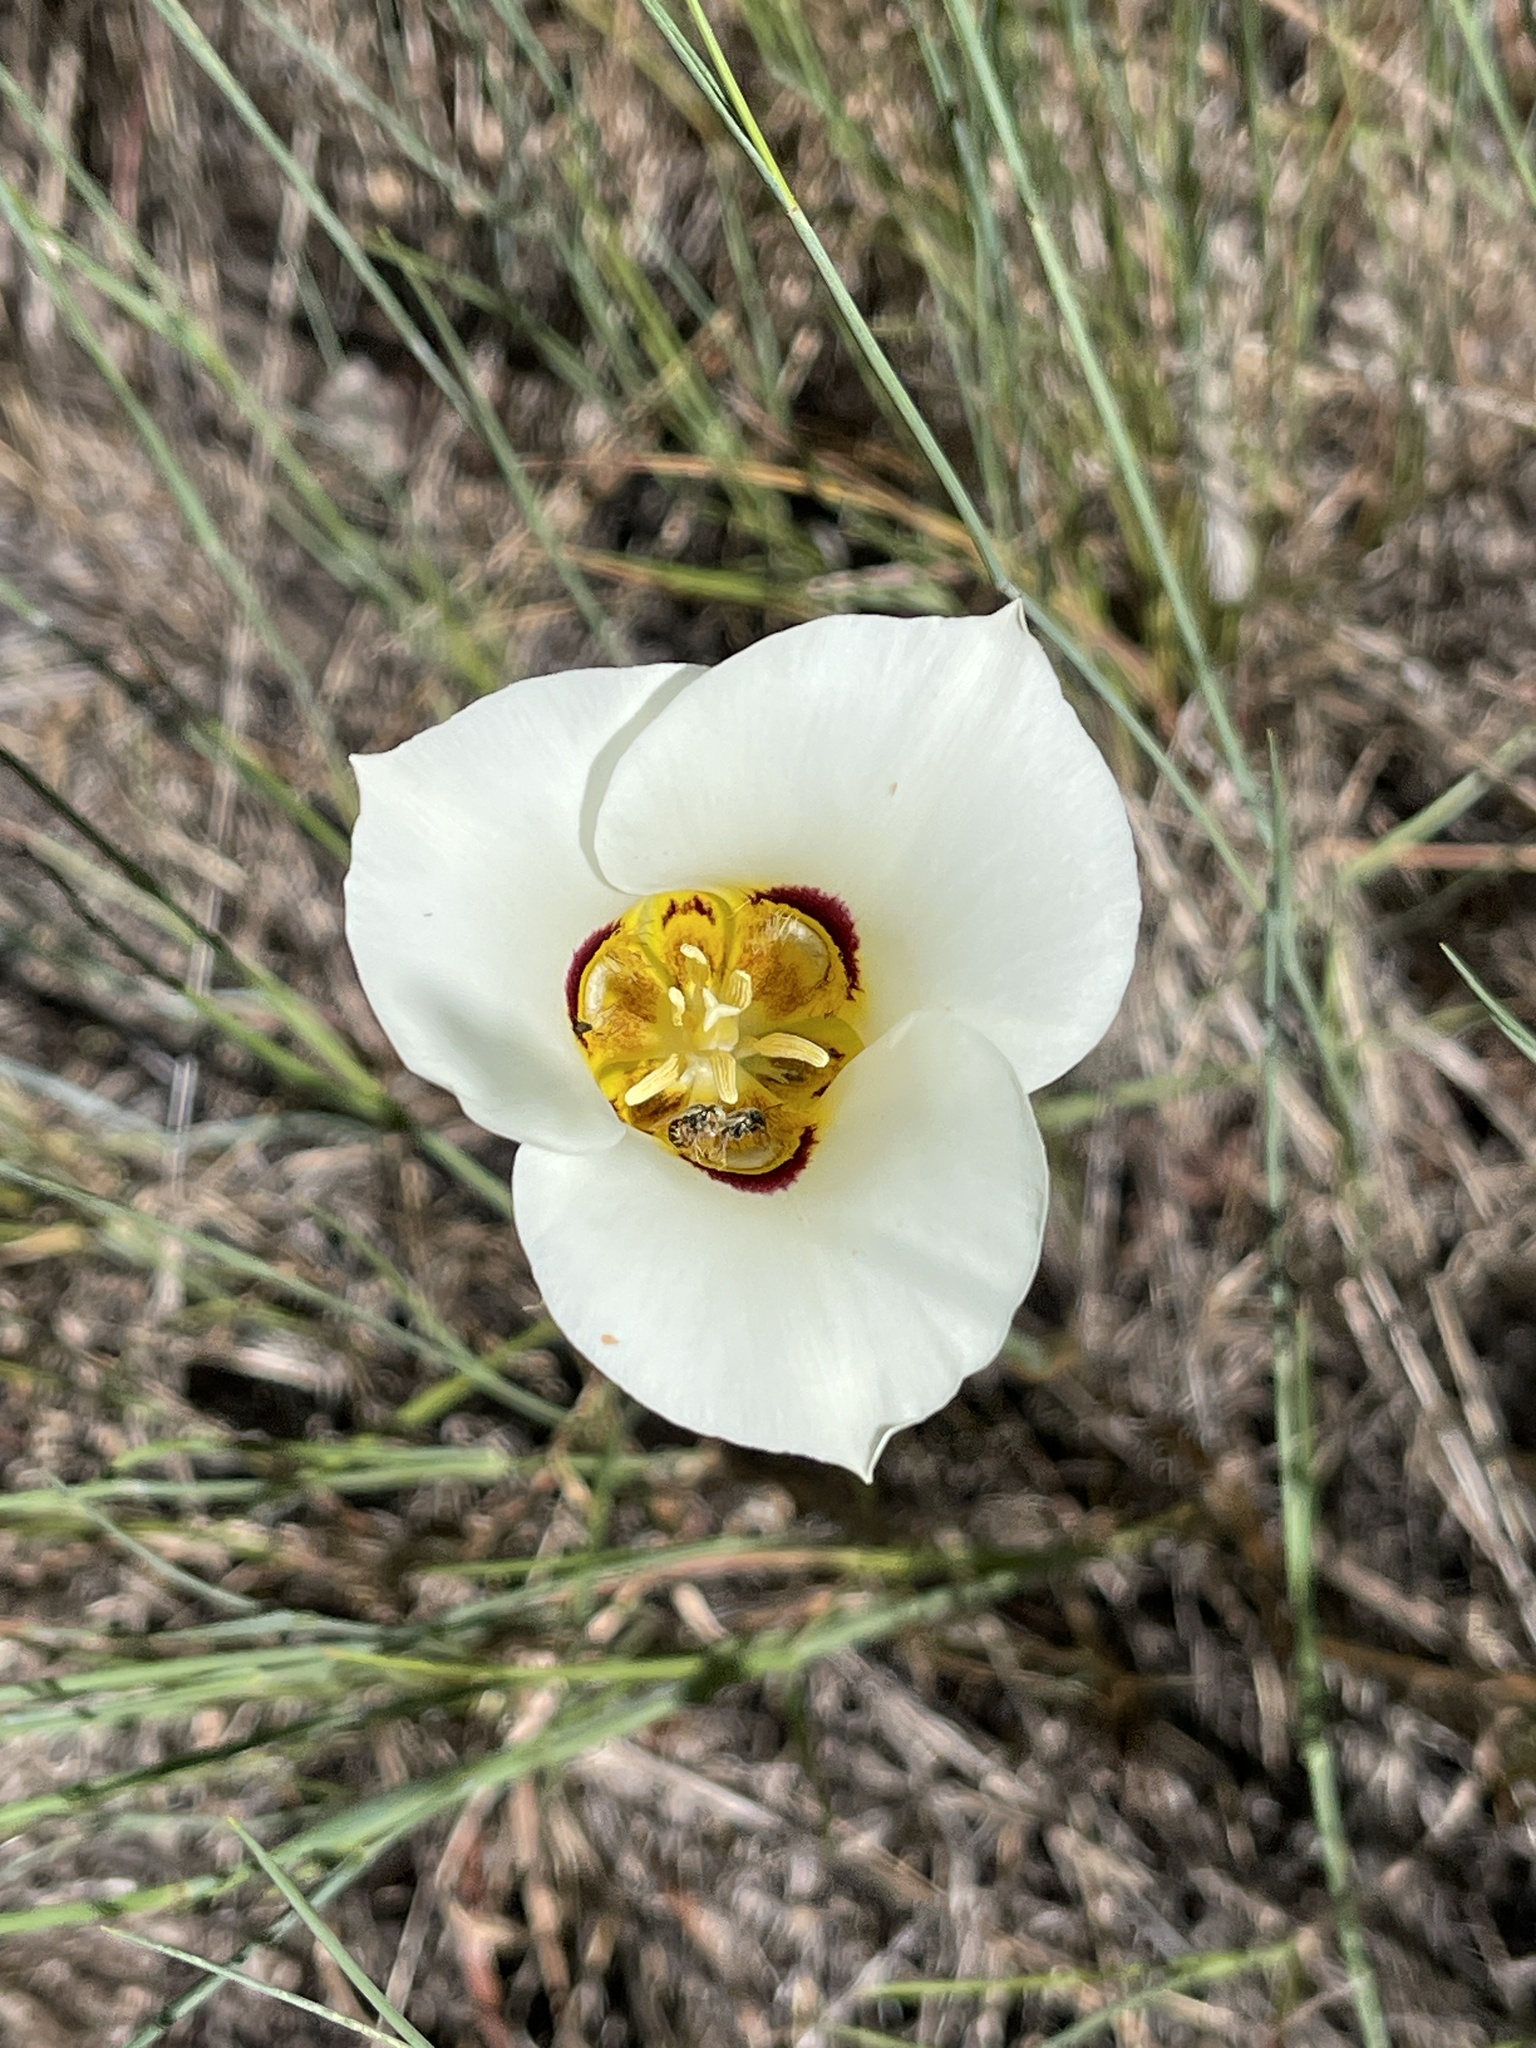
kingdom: Plantae
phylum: Tracheophyta
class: Liliopsida
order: Liliales
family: Liliaceae
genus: Calochortus
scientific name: Calochortus nuttallii
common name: Sego-lily
